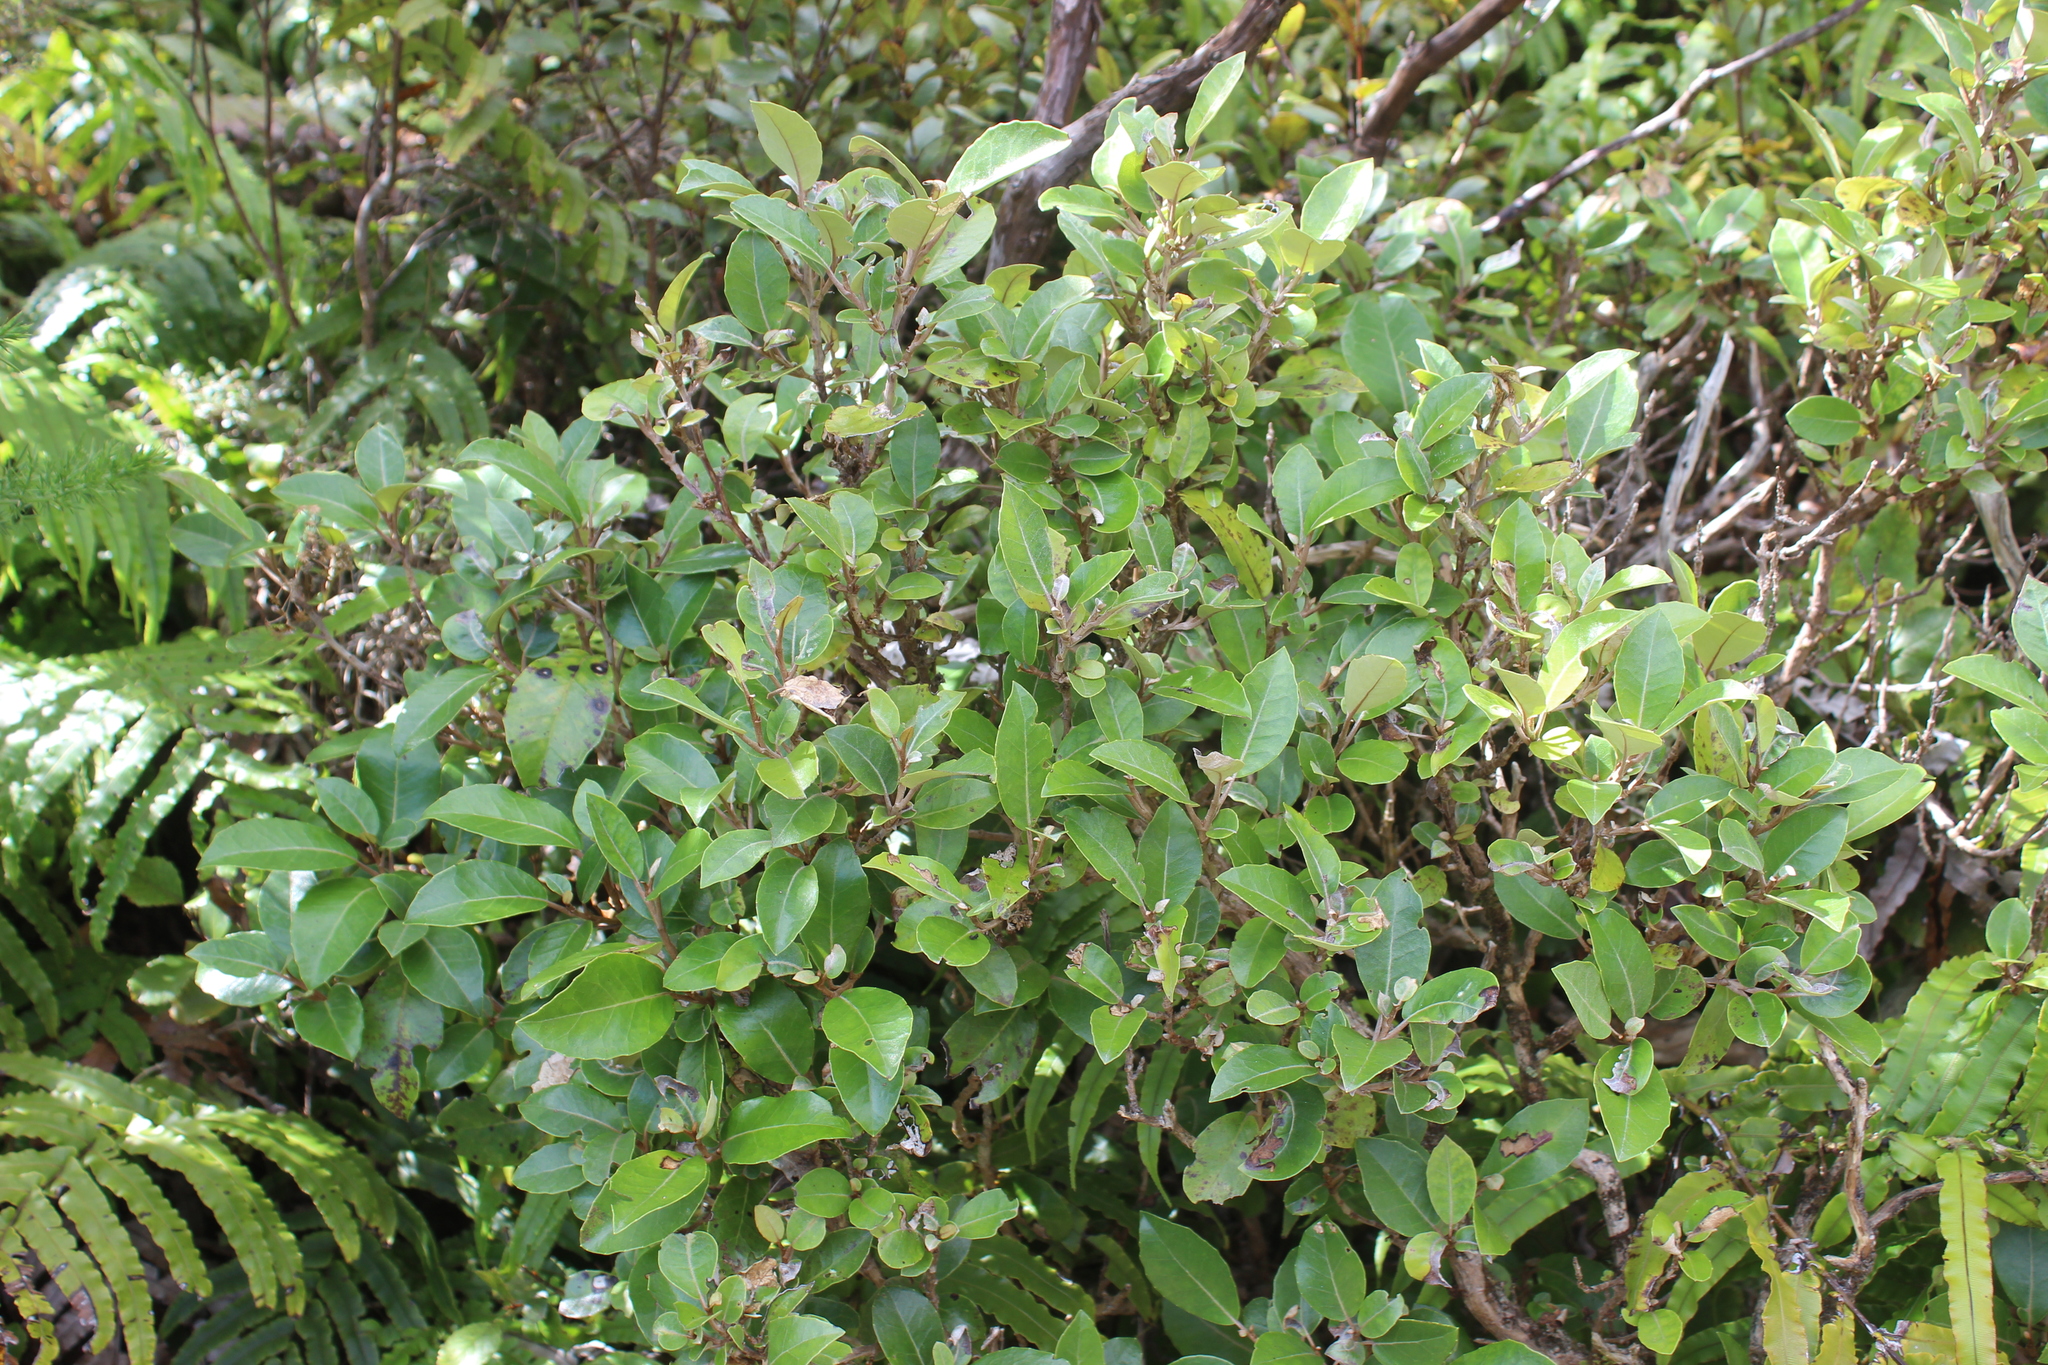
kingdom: Plantae
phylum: Tracheophyta
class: Magnoliopsida
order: Asterales
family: Asteraceae
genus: Olearia
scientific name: Olearia arborescens
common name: Glossy tree daisy
